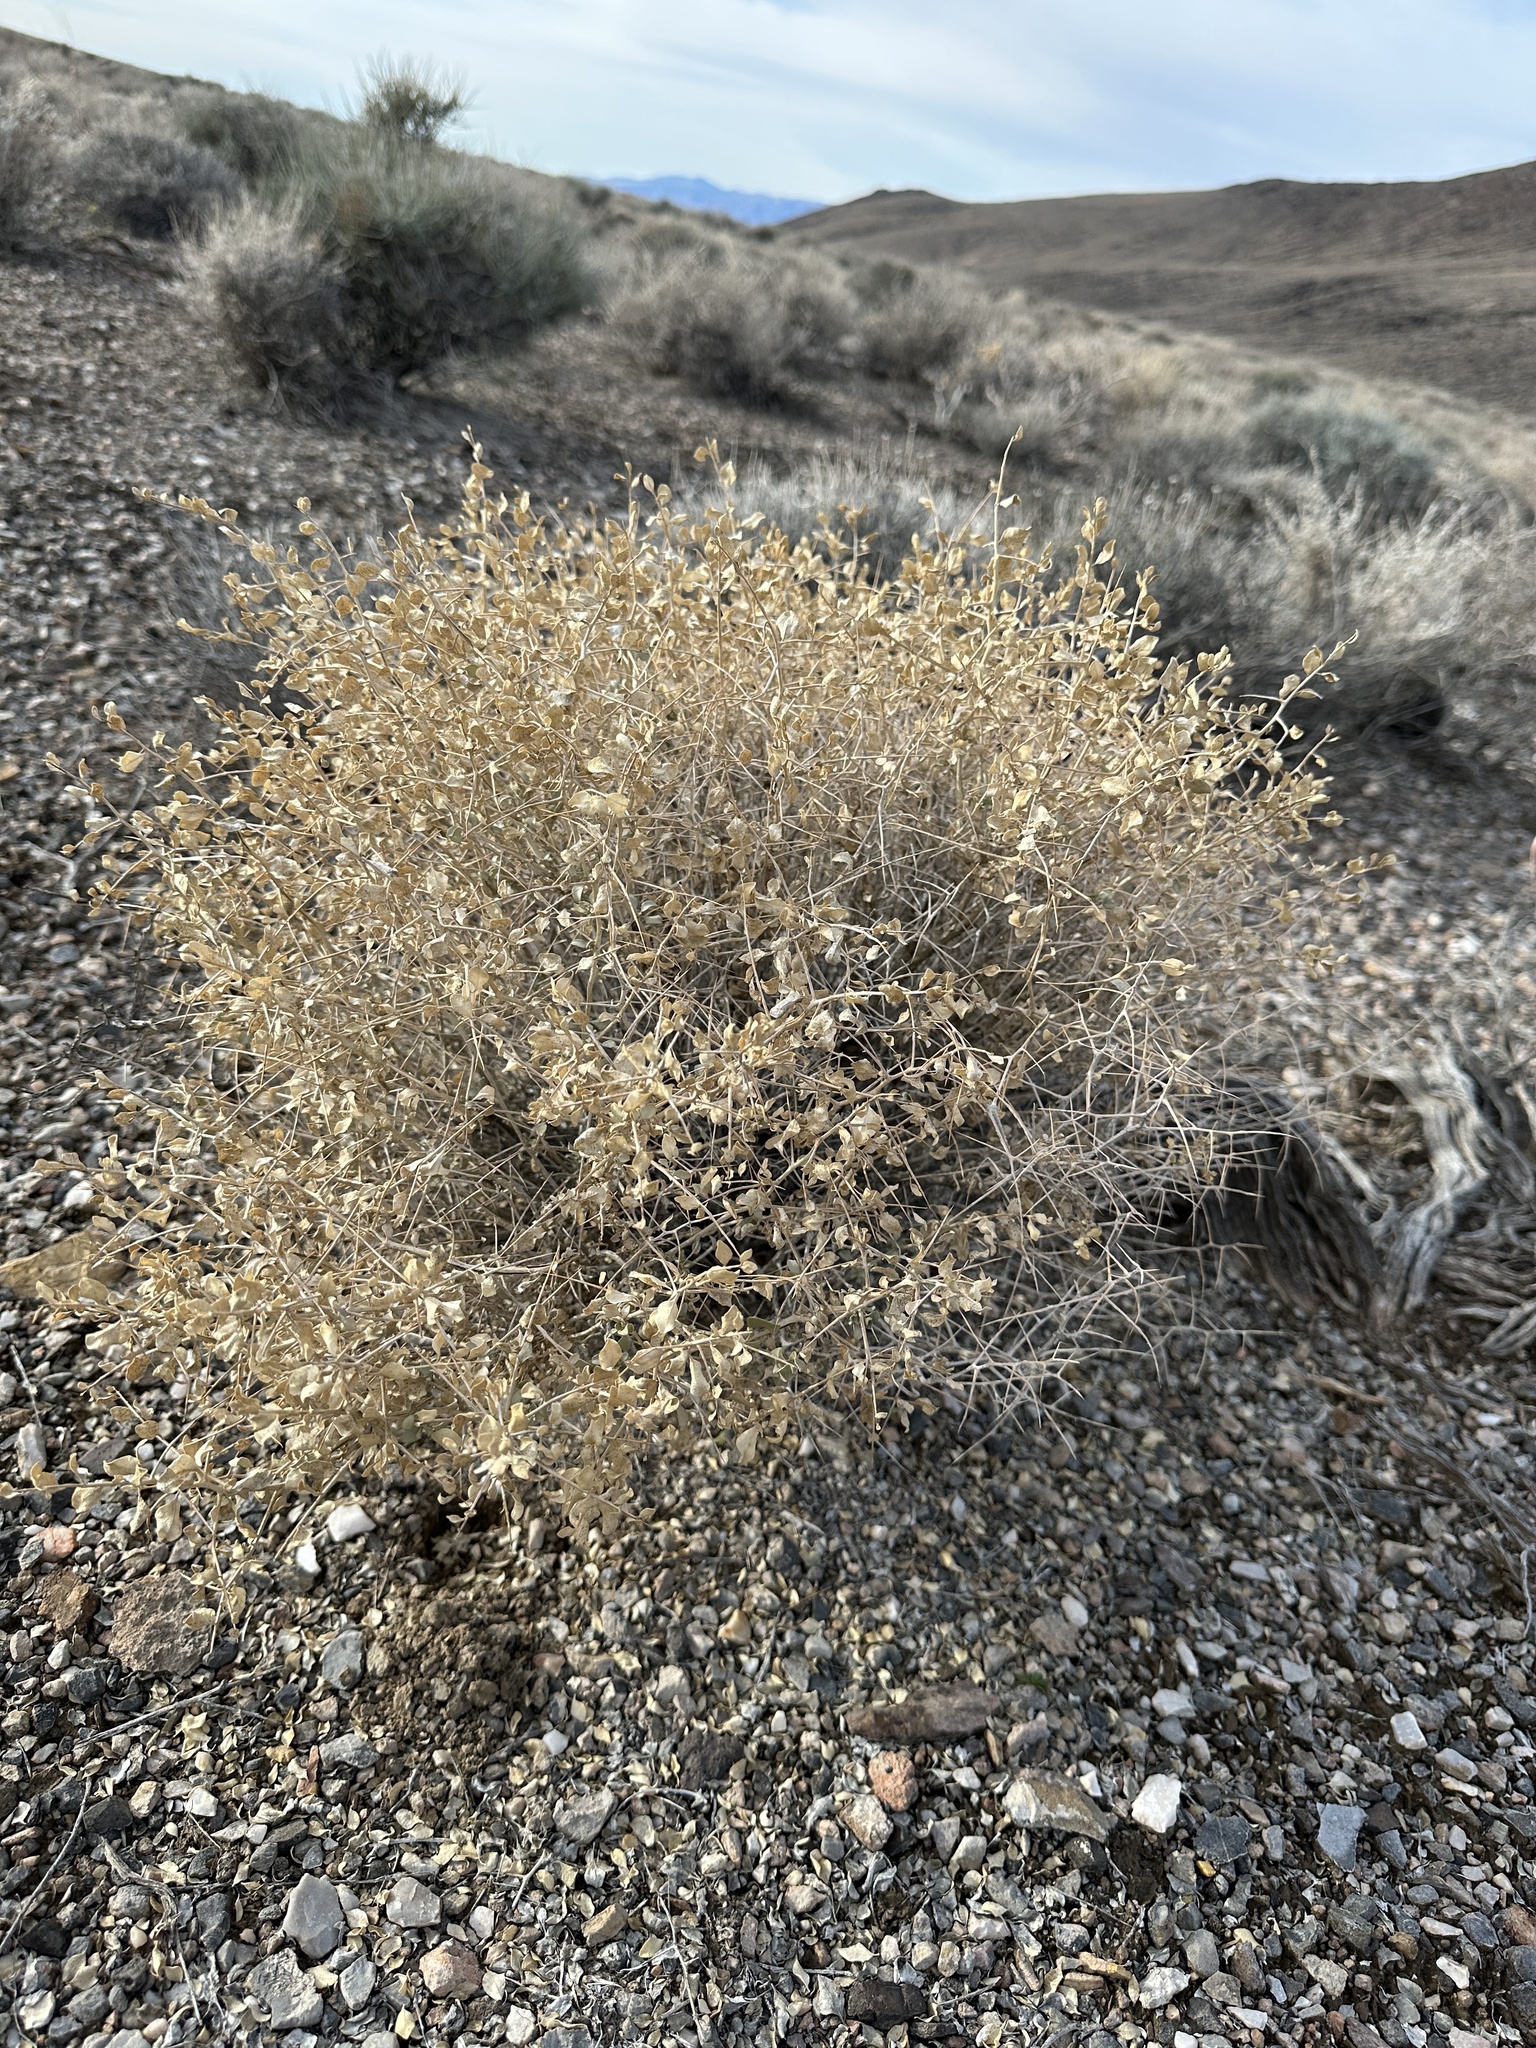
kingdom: Plantae
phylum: Tracheophyta
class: Magnoliopsida
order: Caryophyllales
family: Amaranthaceae
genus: Atriplex
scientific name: Atriplex confertifolia
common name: Shadscale
